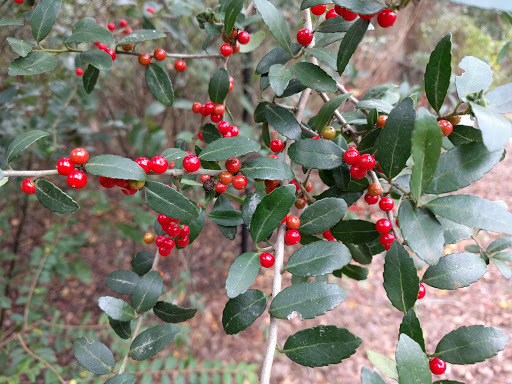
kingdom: Plantae
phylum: Tracheophyta
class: Magnoliopsida
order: Aquifoliales
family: Aquifoliaceae
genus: Ilex
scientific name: Ilex vomitoria
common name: Yaupon holly
